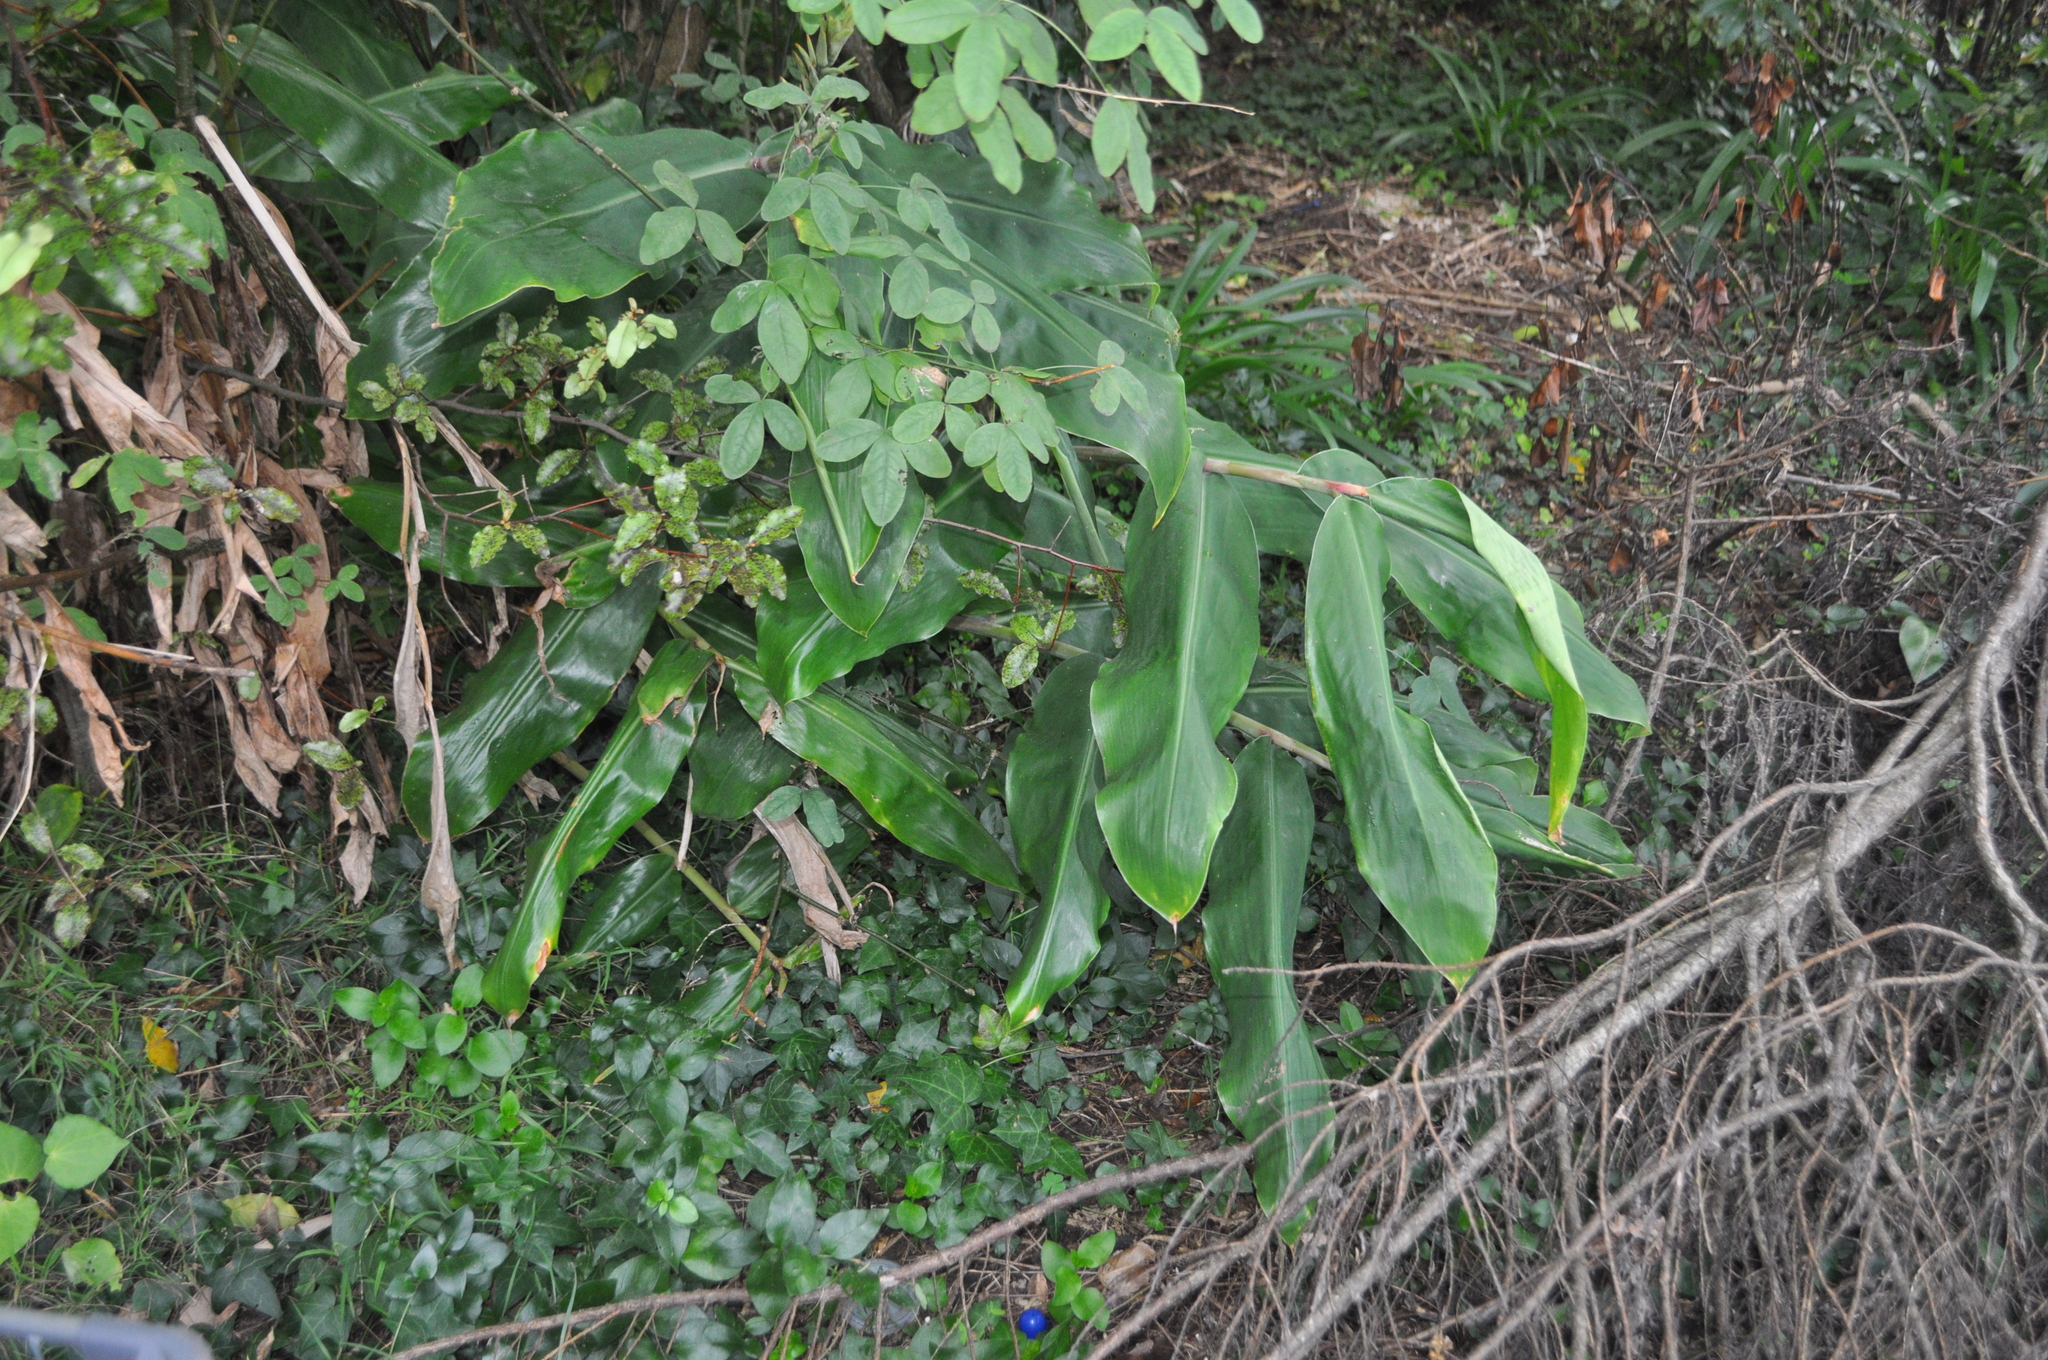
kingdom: Plantae
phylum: Tracheophyta
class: Liliopsida
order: Zingiberales
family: Zingiberaceae
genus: Hedychium
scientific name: Hedychium gardnerianum
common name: Himalayan ginger
